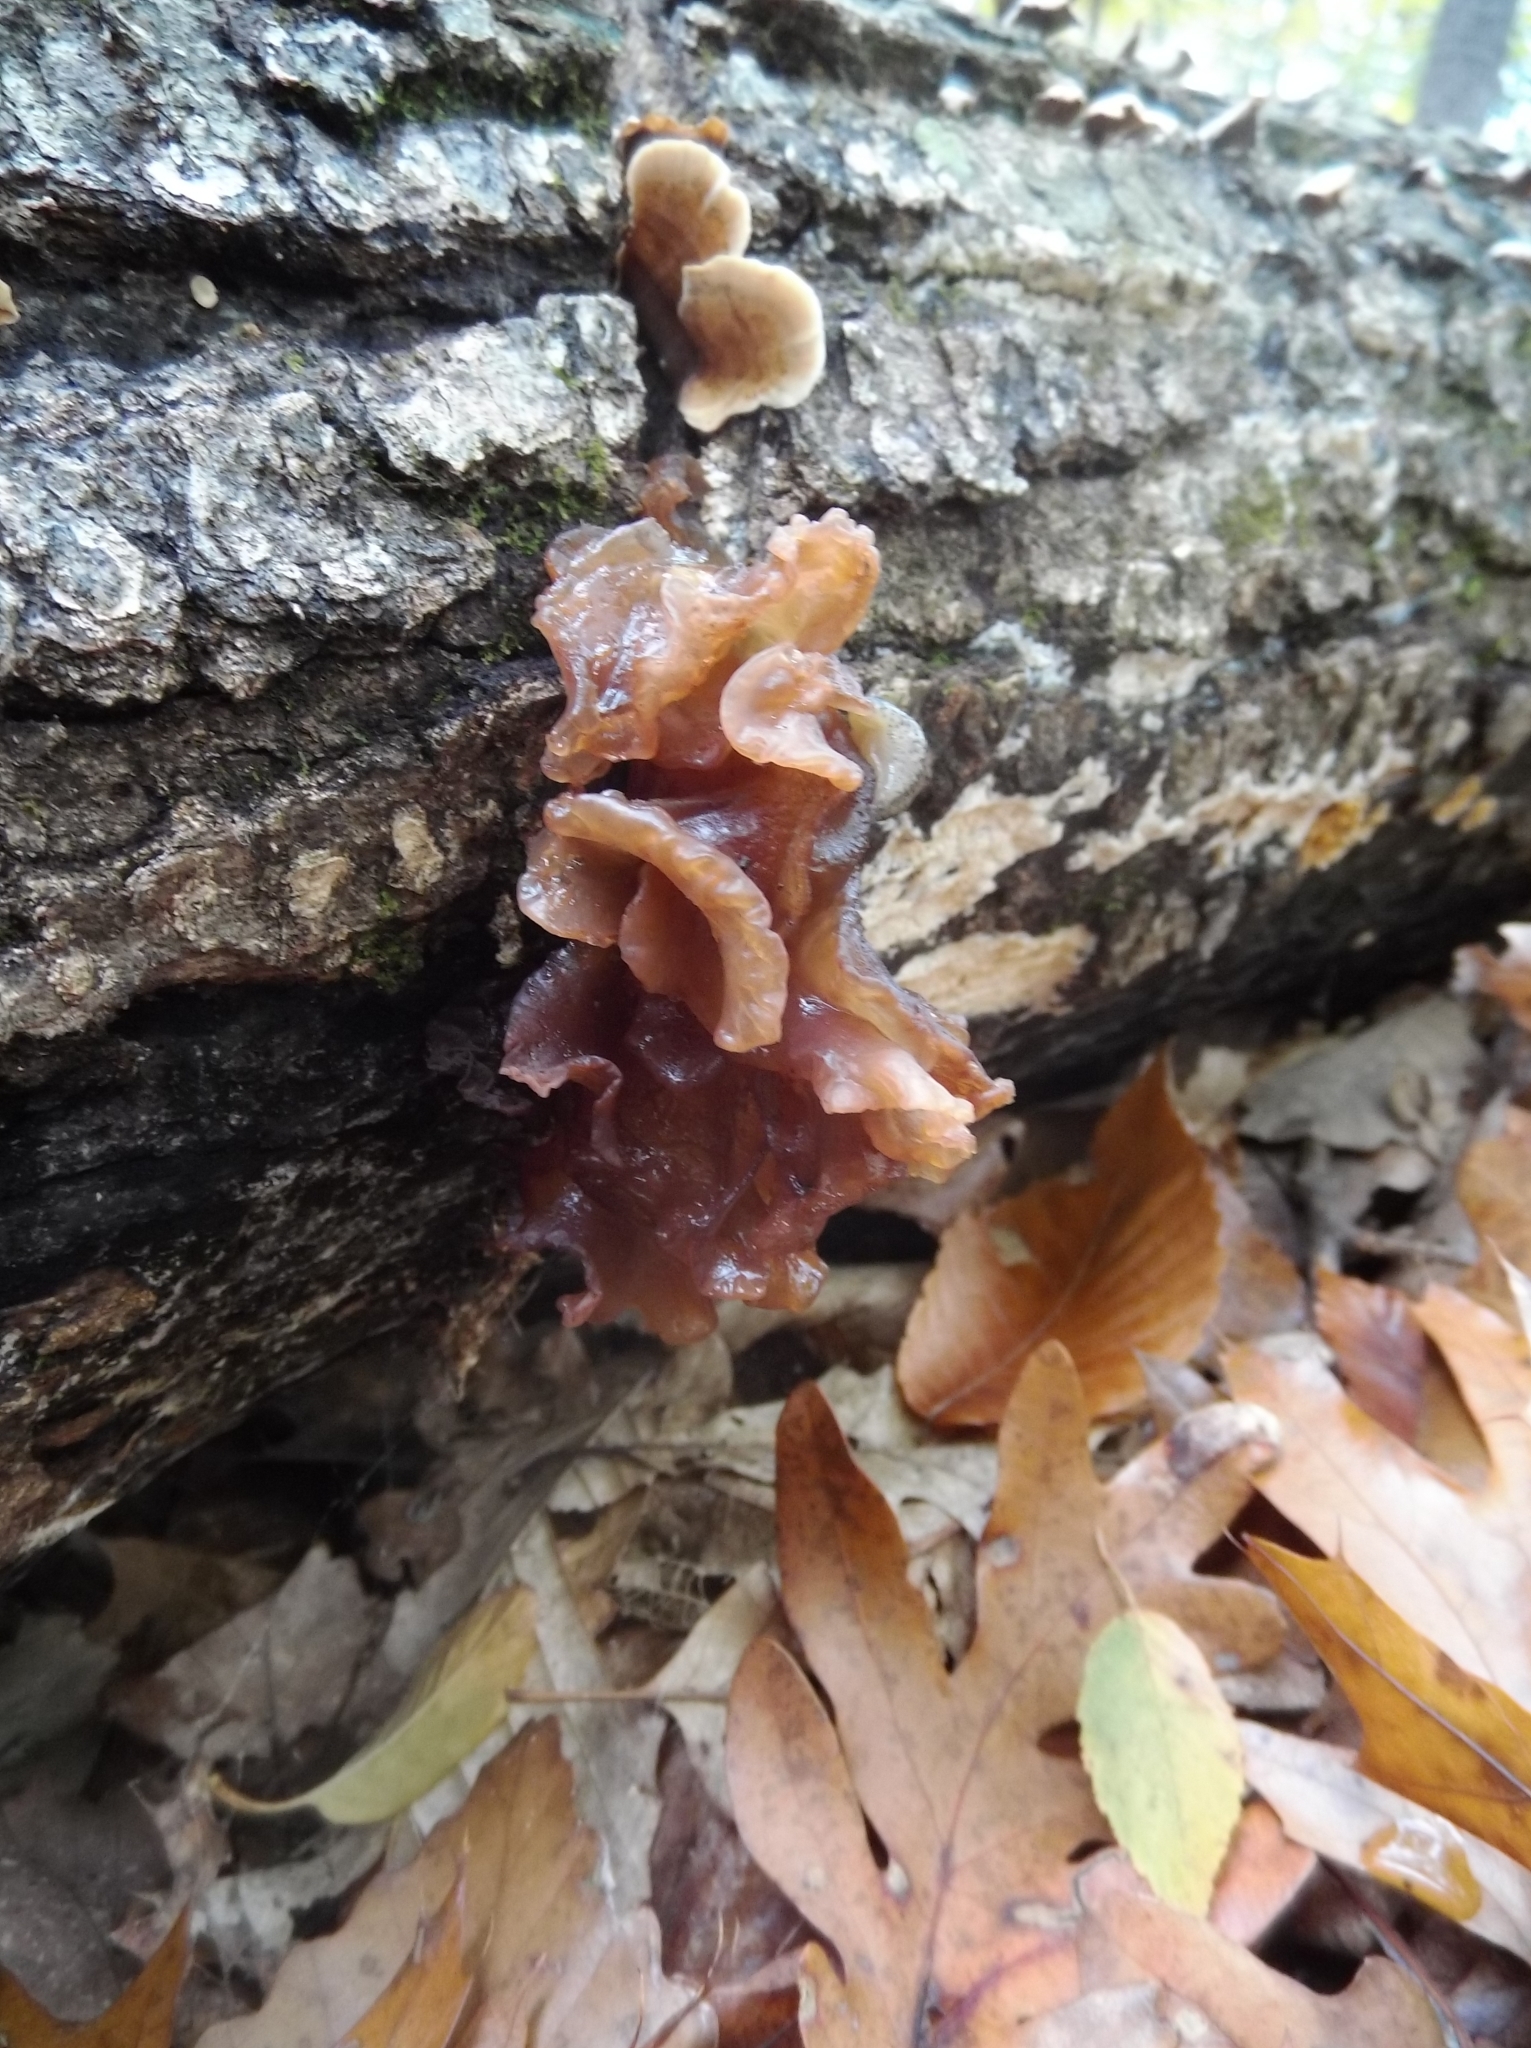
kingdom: Fungi
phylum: Basidiomycota
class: Tremellomycetes
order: Tremellales
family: Tremellaceae
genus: Phaeotremella
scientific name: Phaeotremella foliacea
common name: Leafy brain
